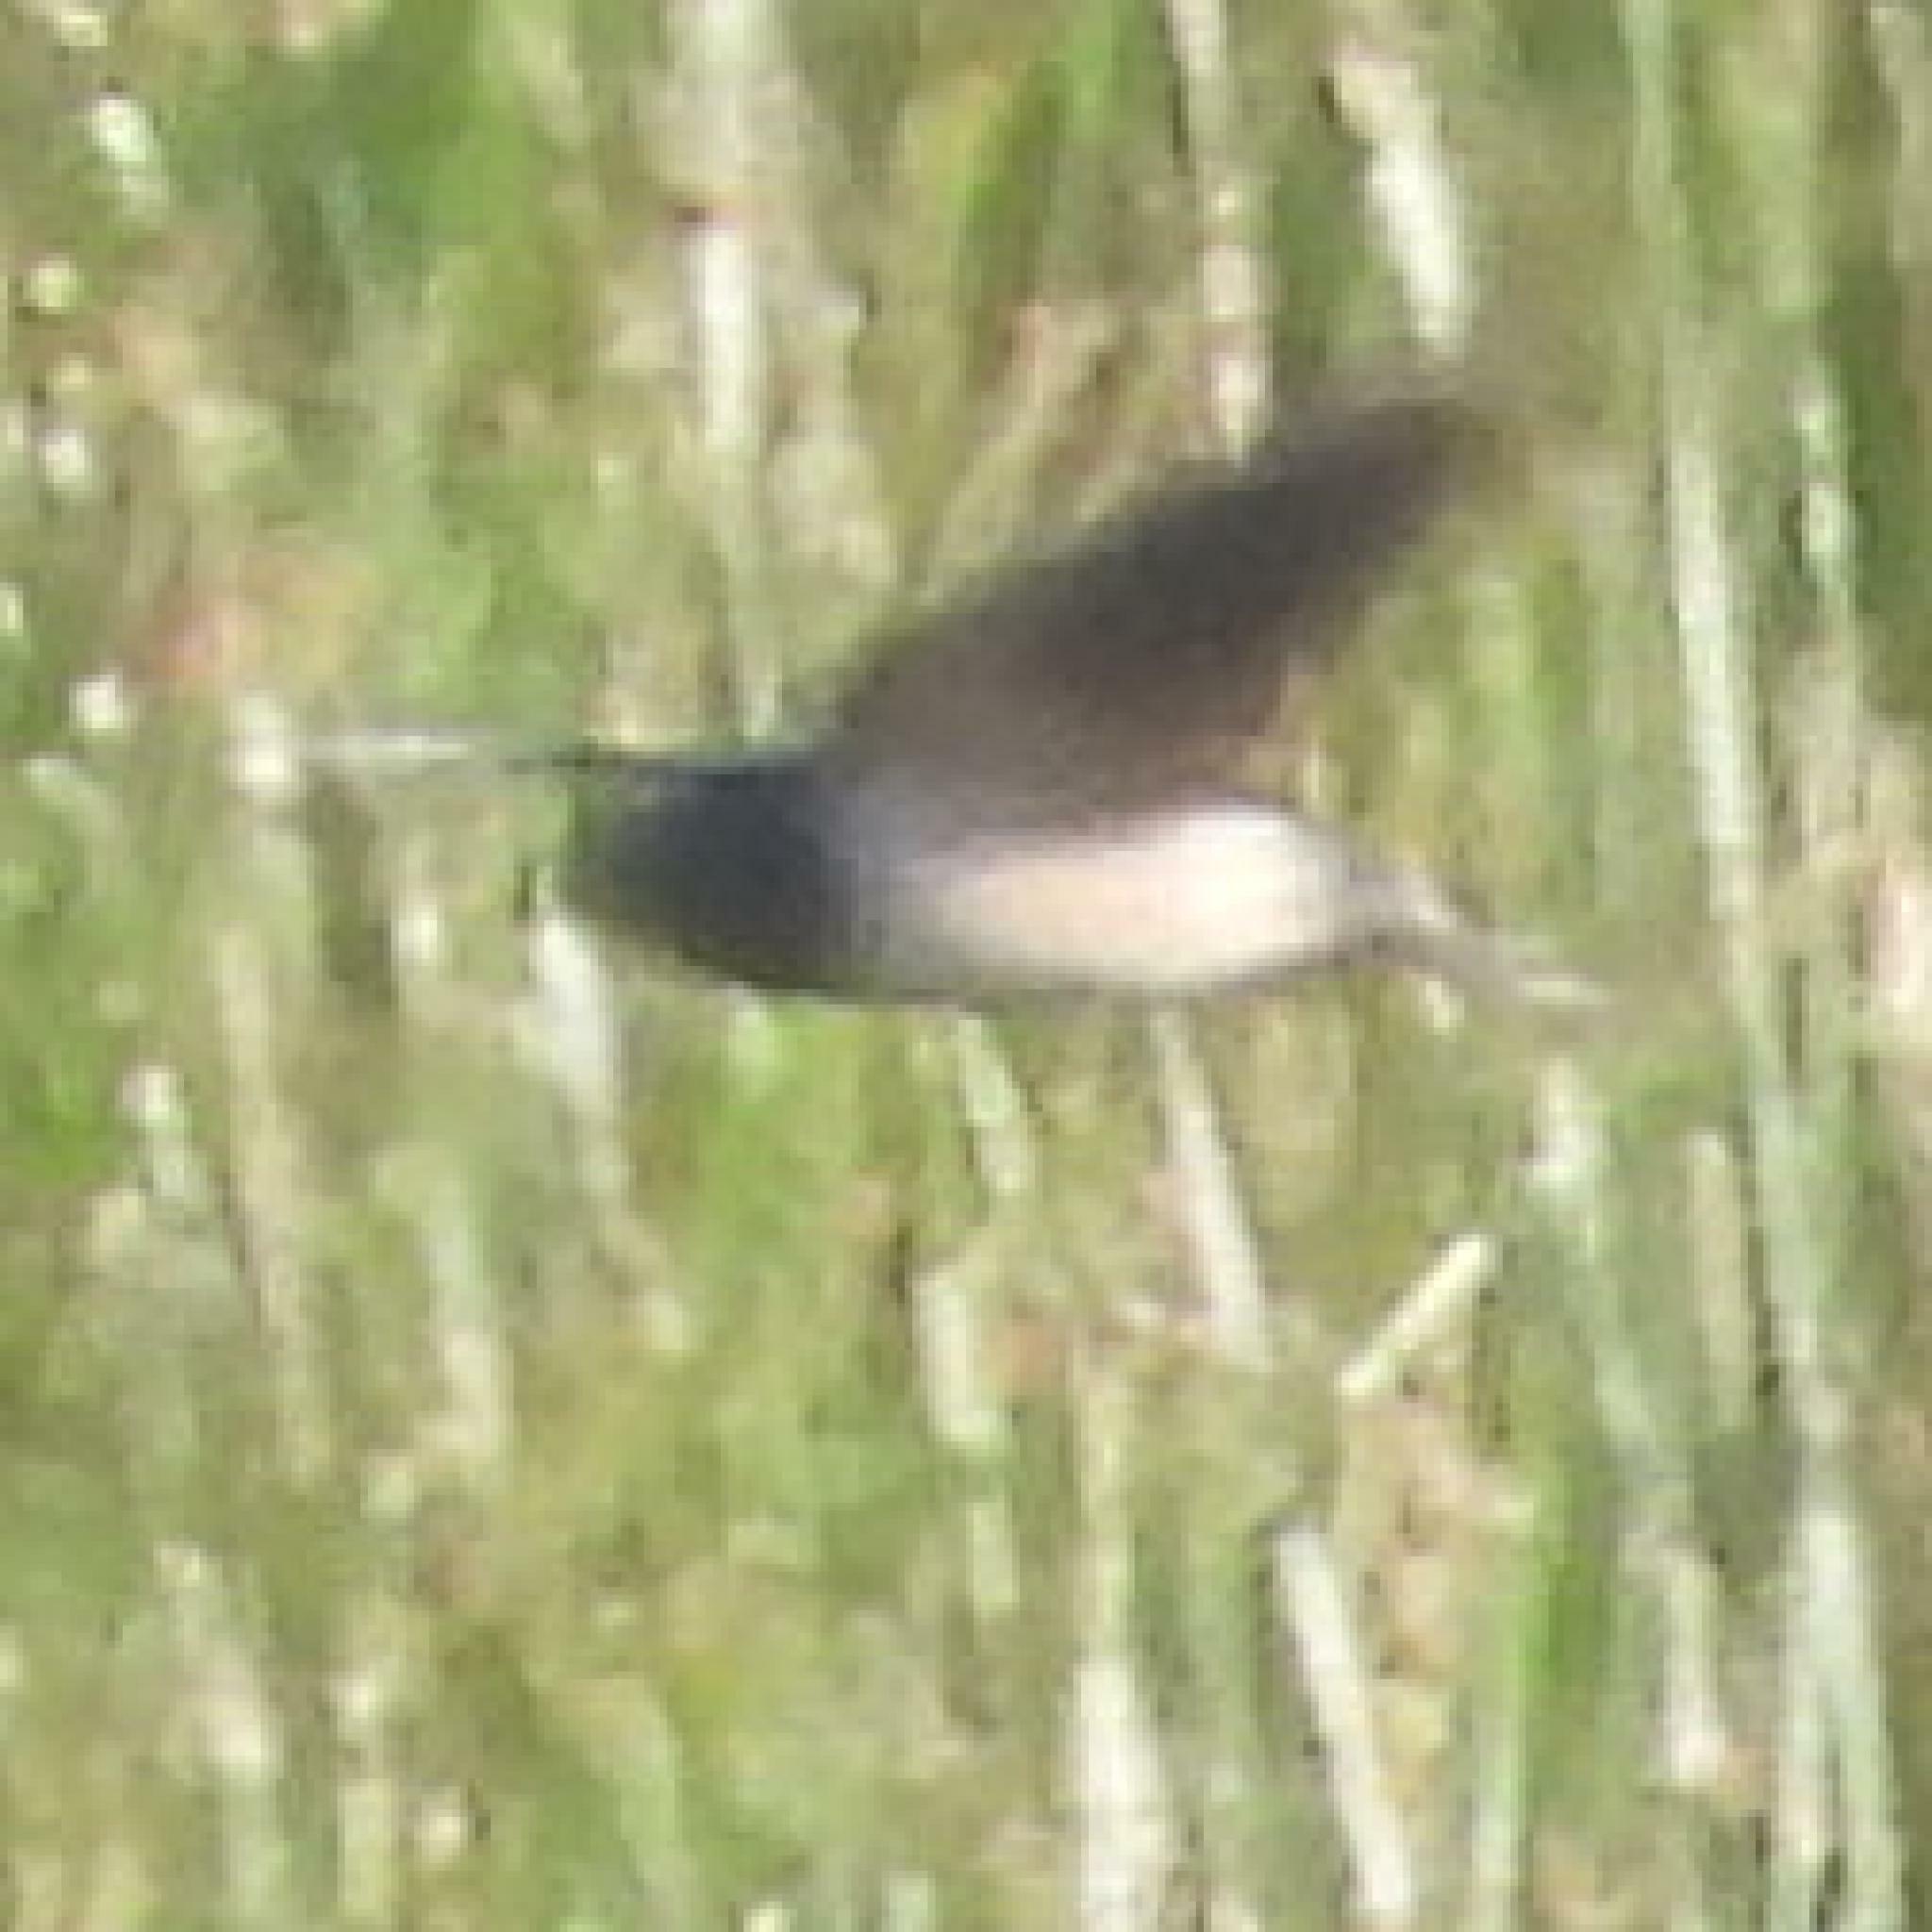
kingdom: Animalia
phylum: Chordata
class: Aves
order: Passeriformes
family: Hirundinidae
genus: Hirundo
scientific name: Hirundo rustica
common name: Barn swallow
